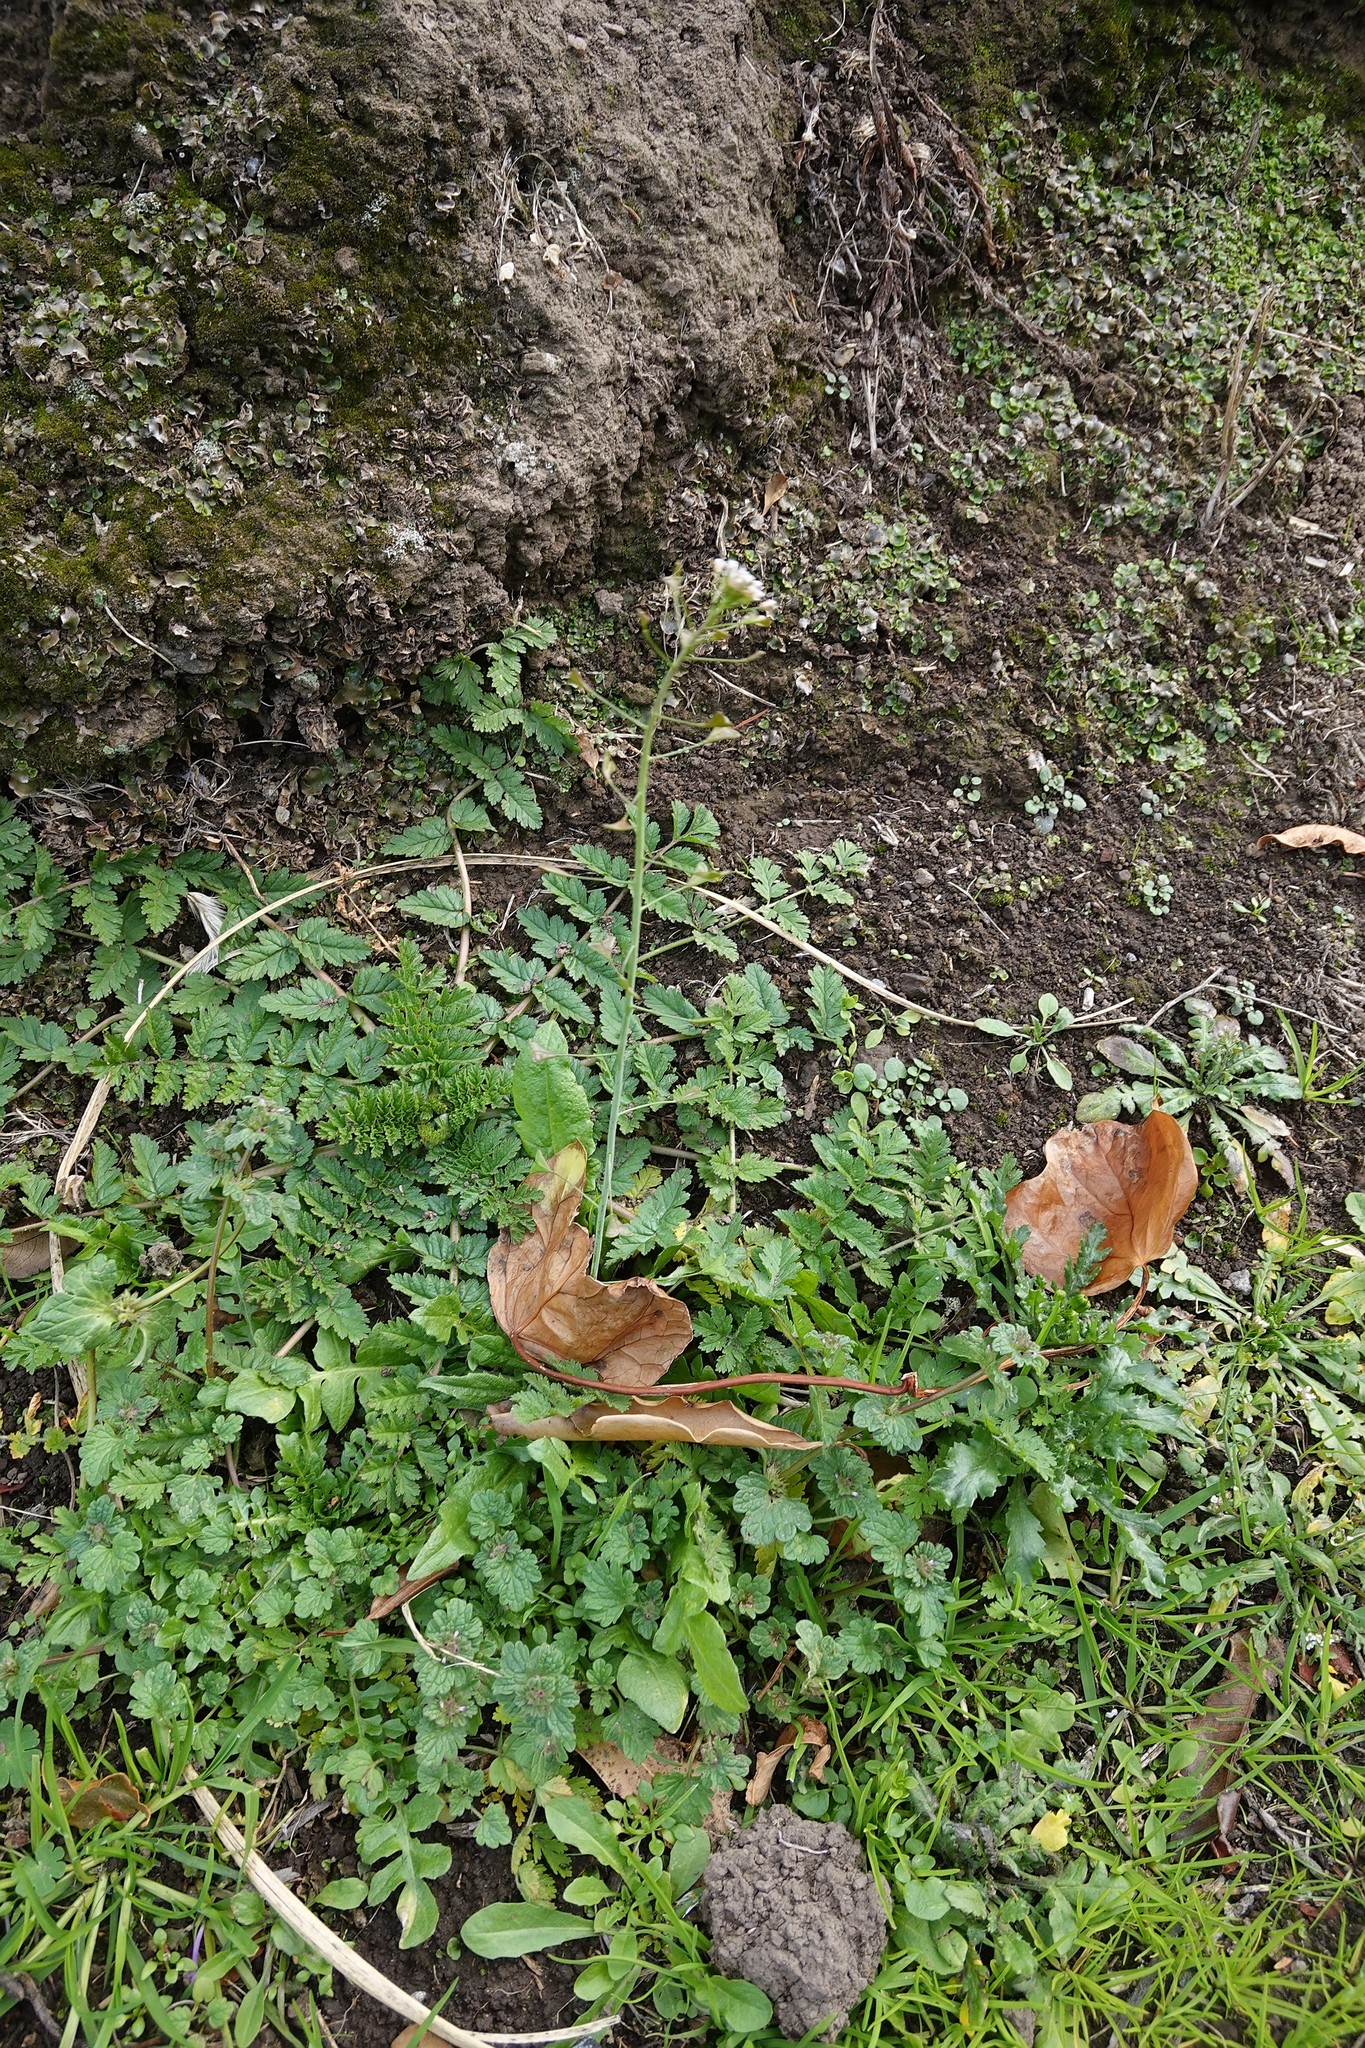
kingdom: Plantae
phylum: Tracheophyta
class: Magnoliopsida
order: Brassicales
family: Brassicaceae
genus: Capsella
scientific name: Capsella bursa-pastoris
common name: Shepherd's purse
